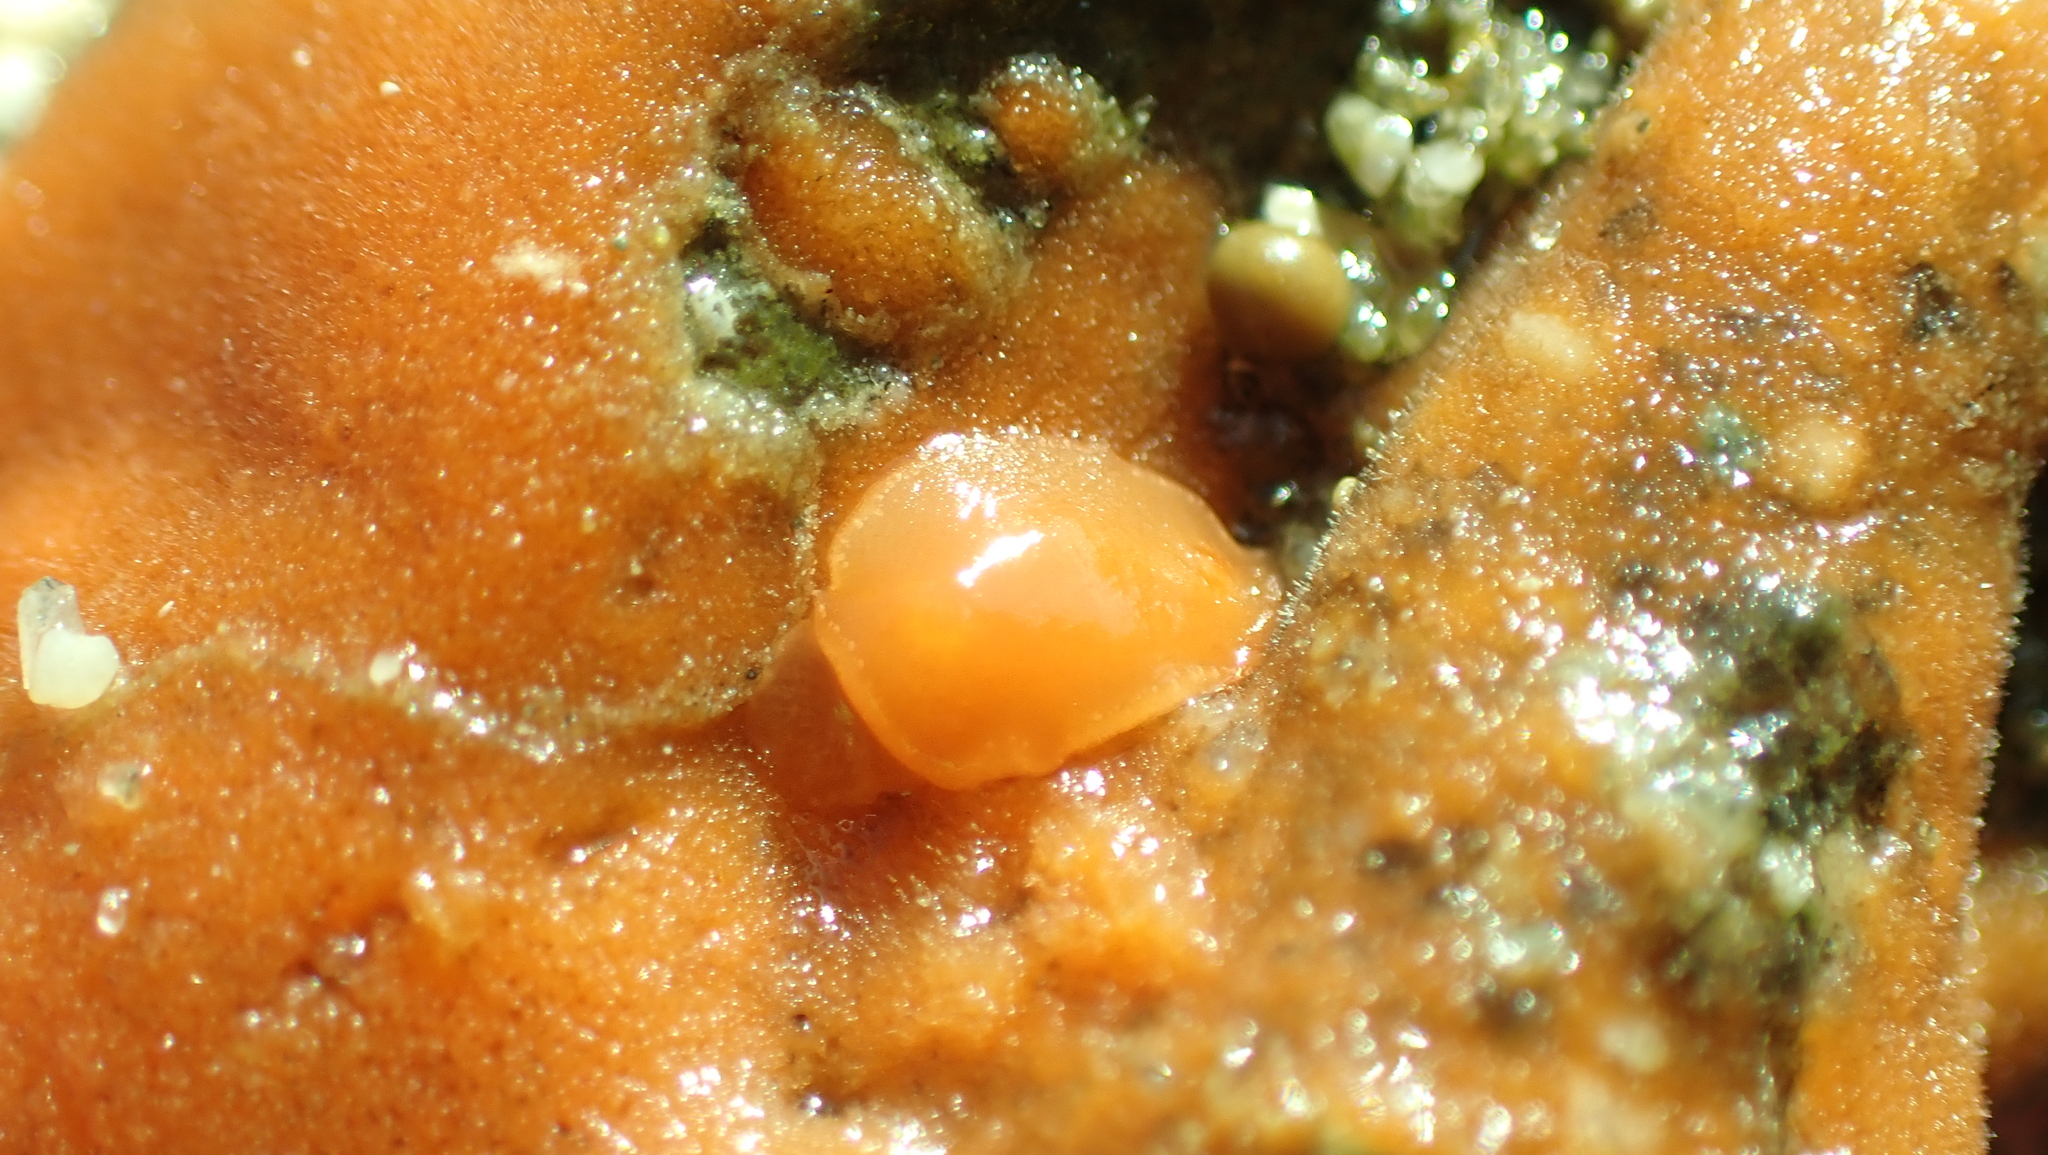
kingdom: Animalia
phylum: Mollusca
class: Gastropoda
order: Nudibranchia
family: Discodorididae
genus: Rostanga
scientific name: Rostanga pulchra
